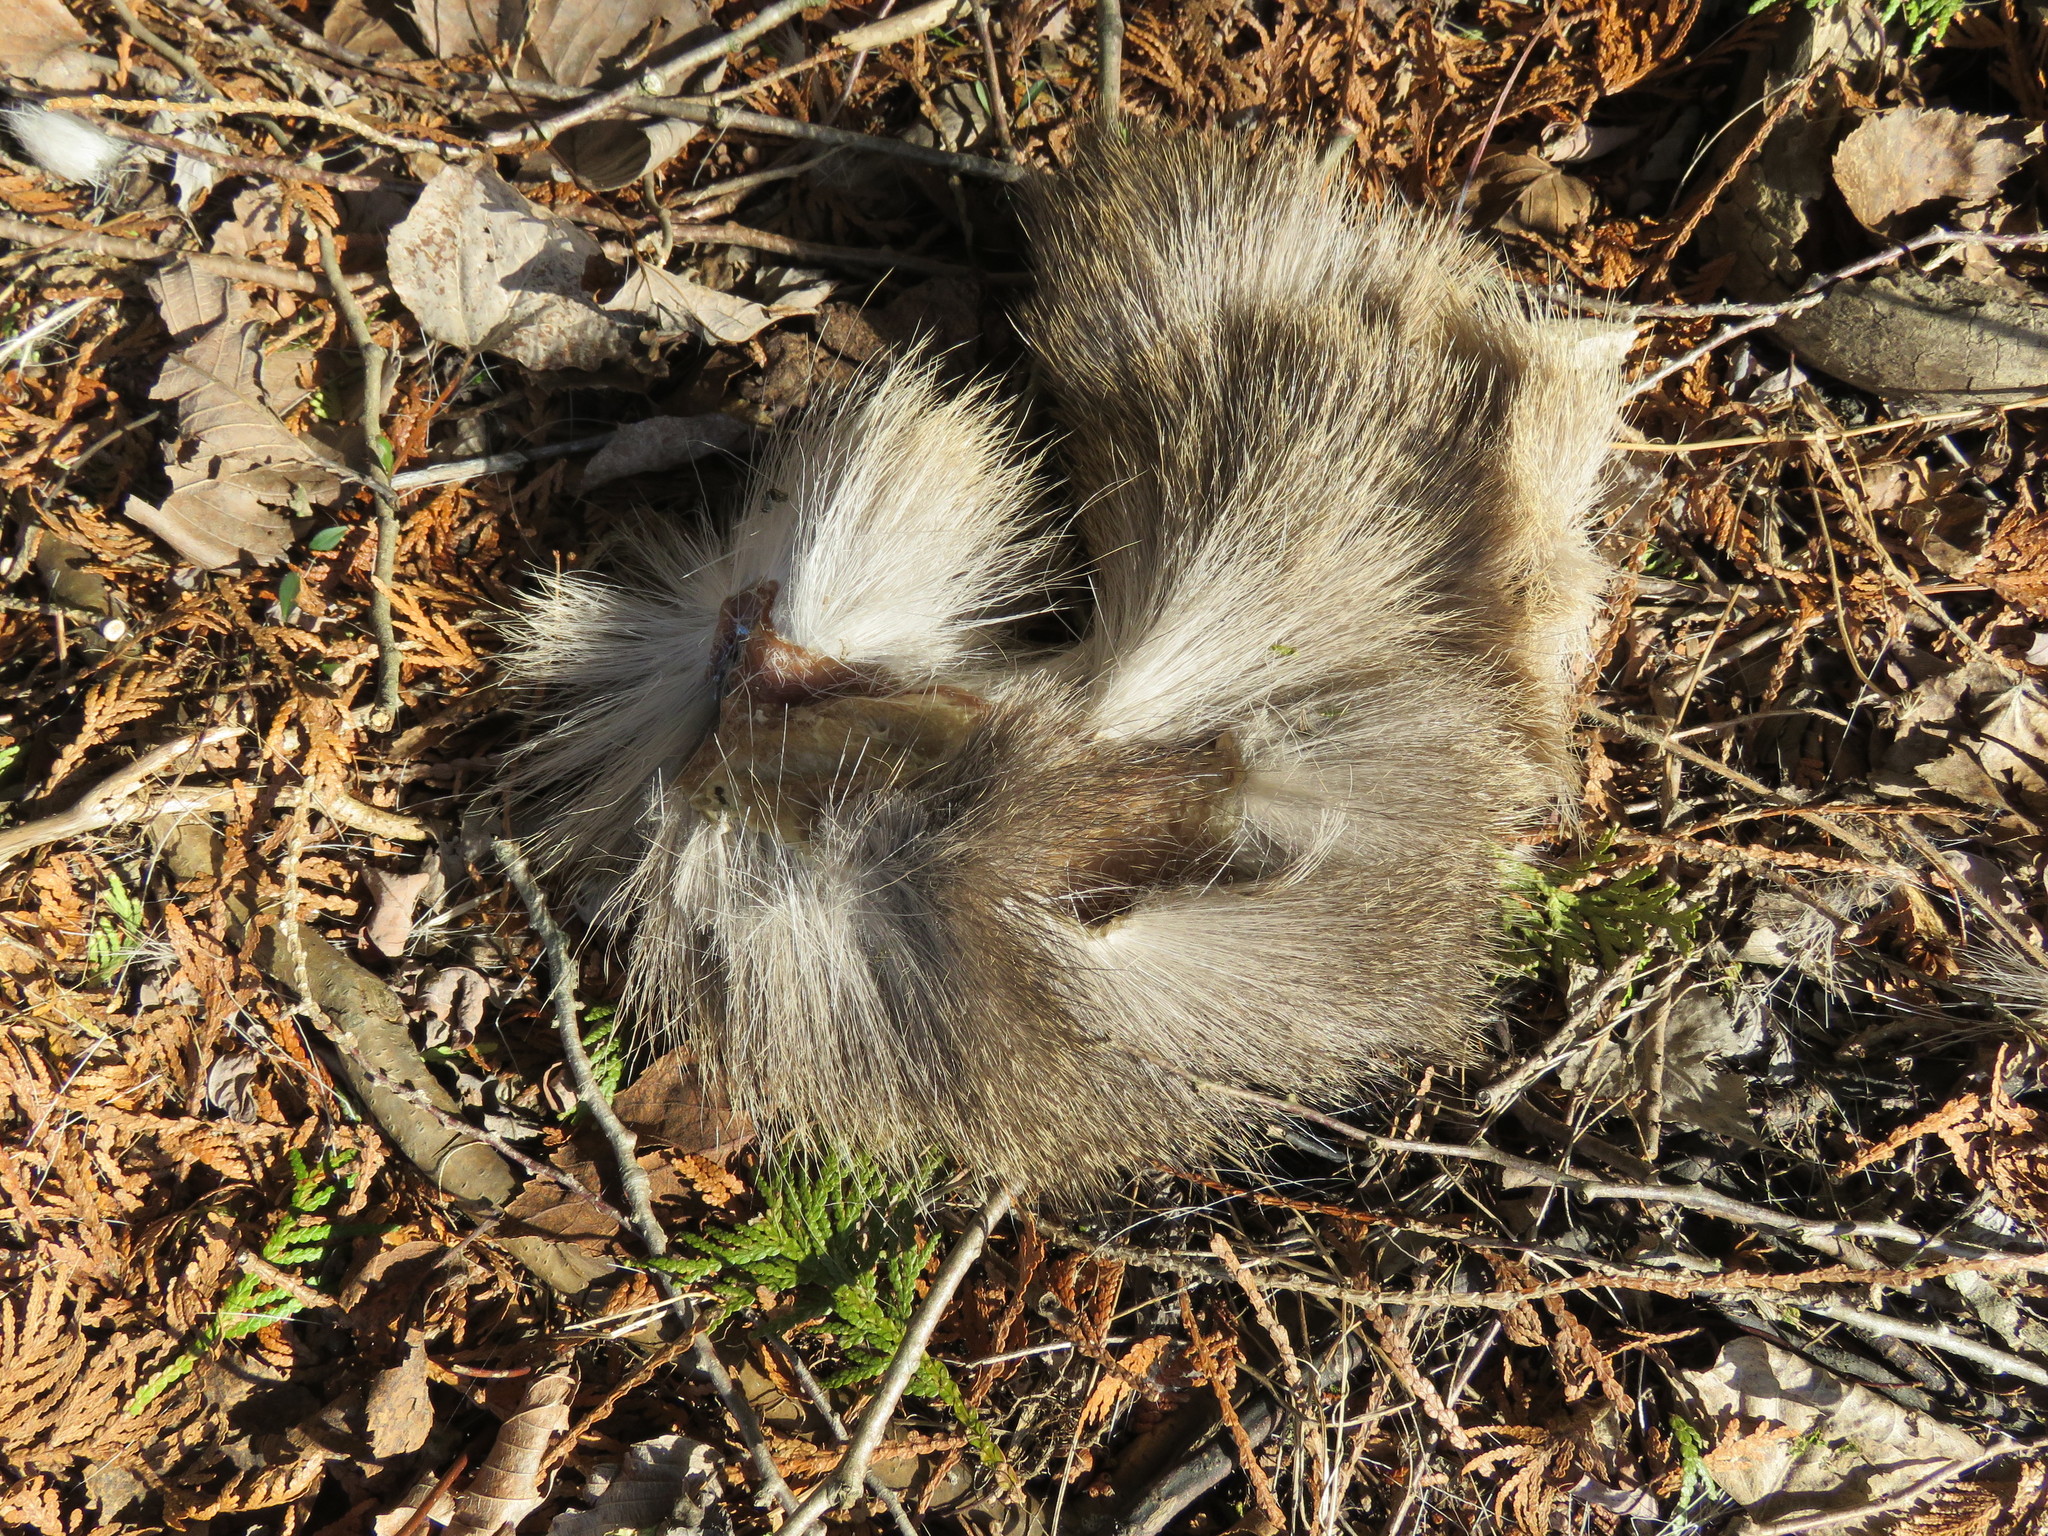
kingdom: Animalia
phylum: Chordata
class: Mammalia
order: Artiodactyla
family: Cervidae
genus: Odocoileus
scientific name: Odocoileus virginianus
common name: White-tailed deer
